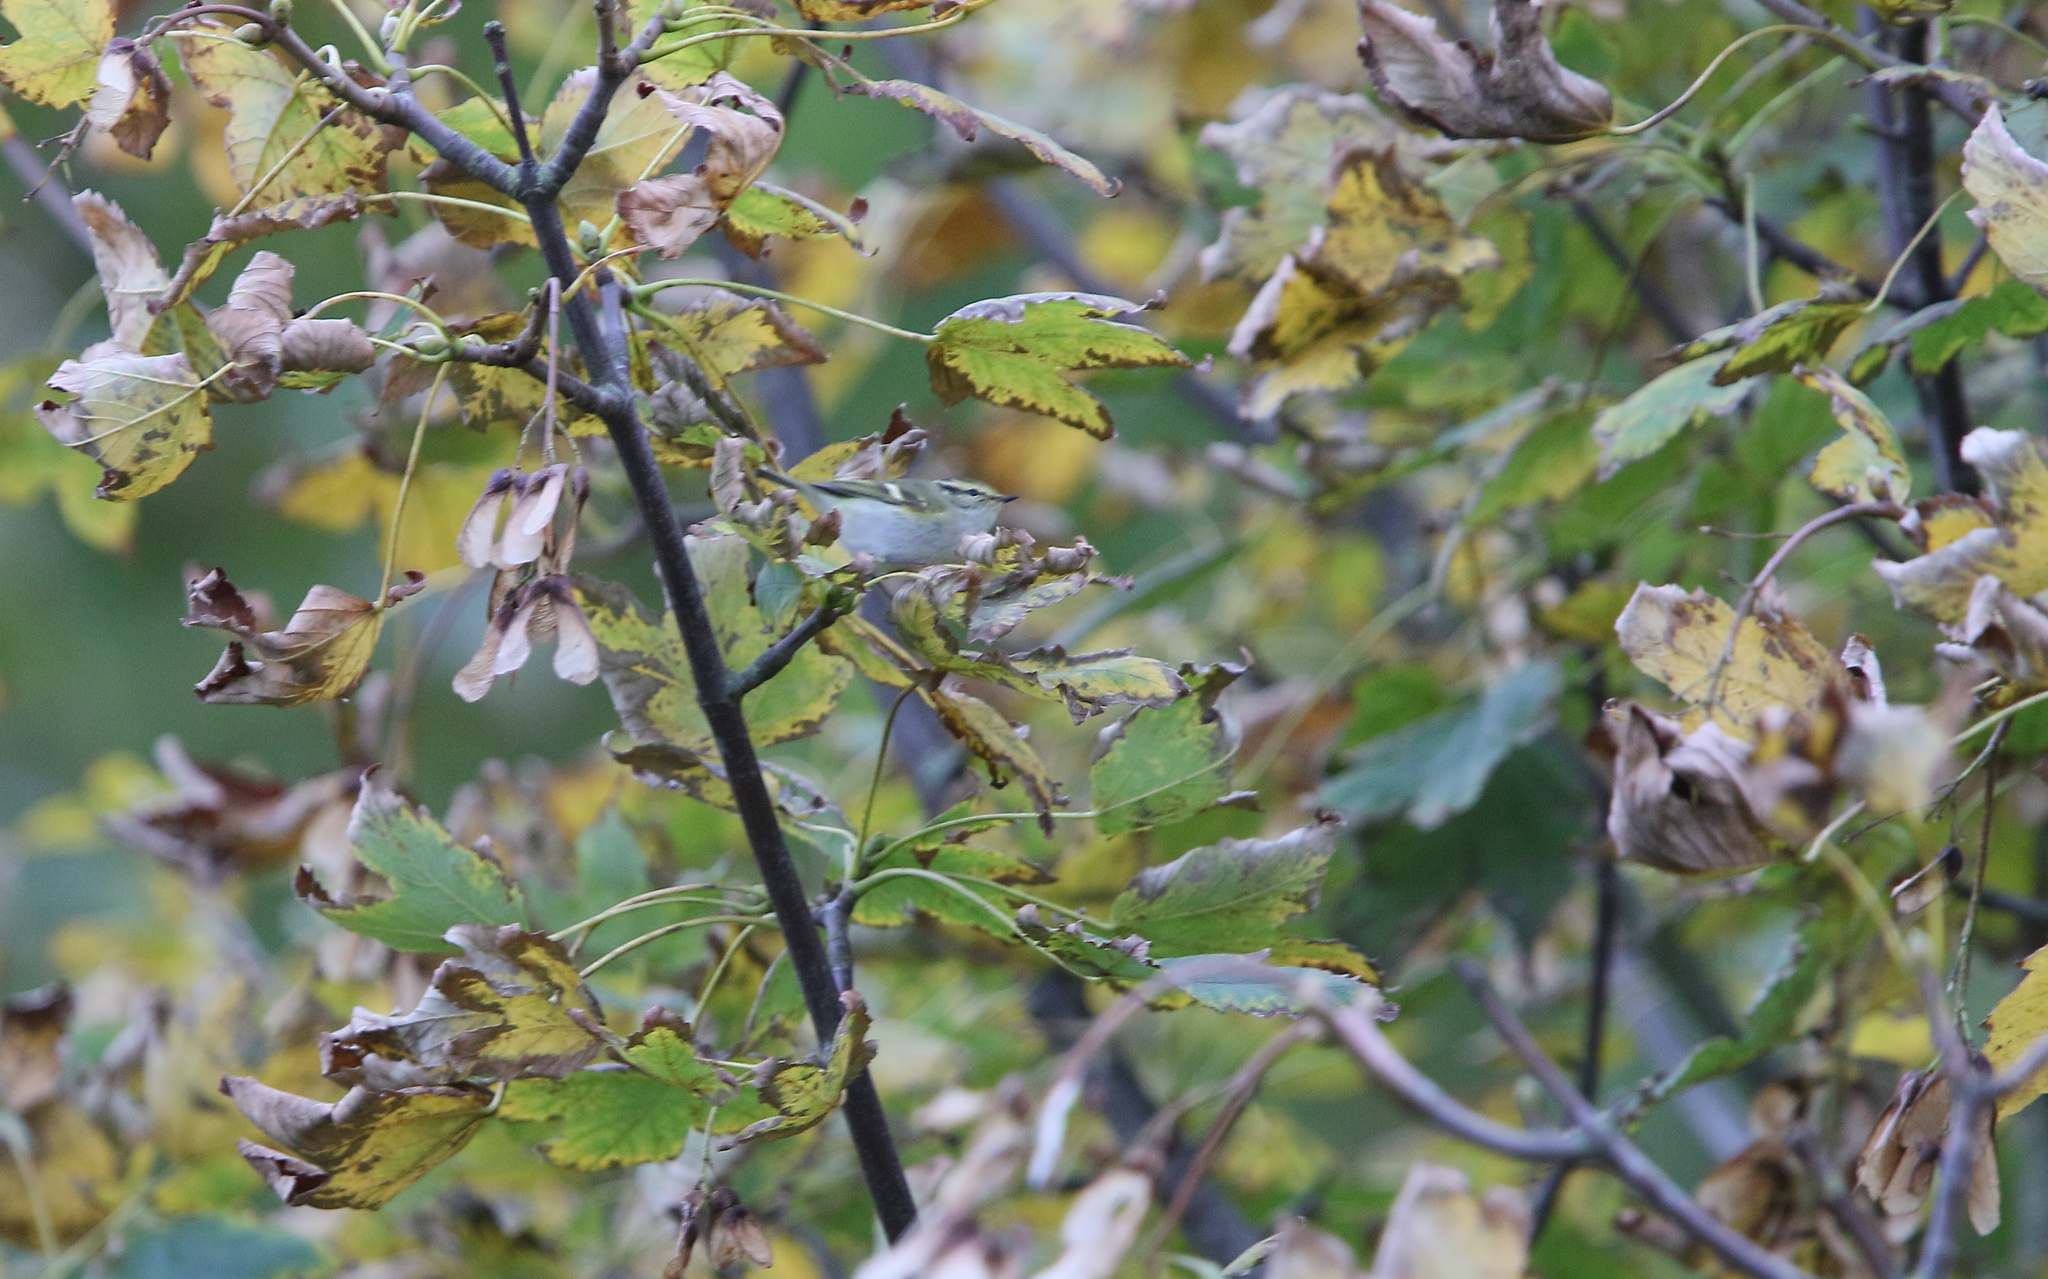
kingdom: Animalia
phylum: Chordata
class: Aves
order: Passeriformes
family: Phylloscopidae
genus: Phylloscopus
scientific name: Phylloscopus proregulus
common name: Pallas's leaf warbler
